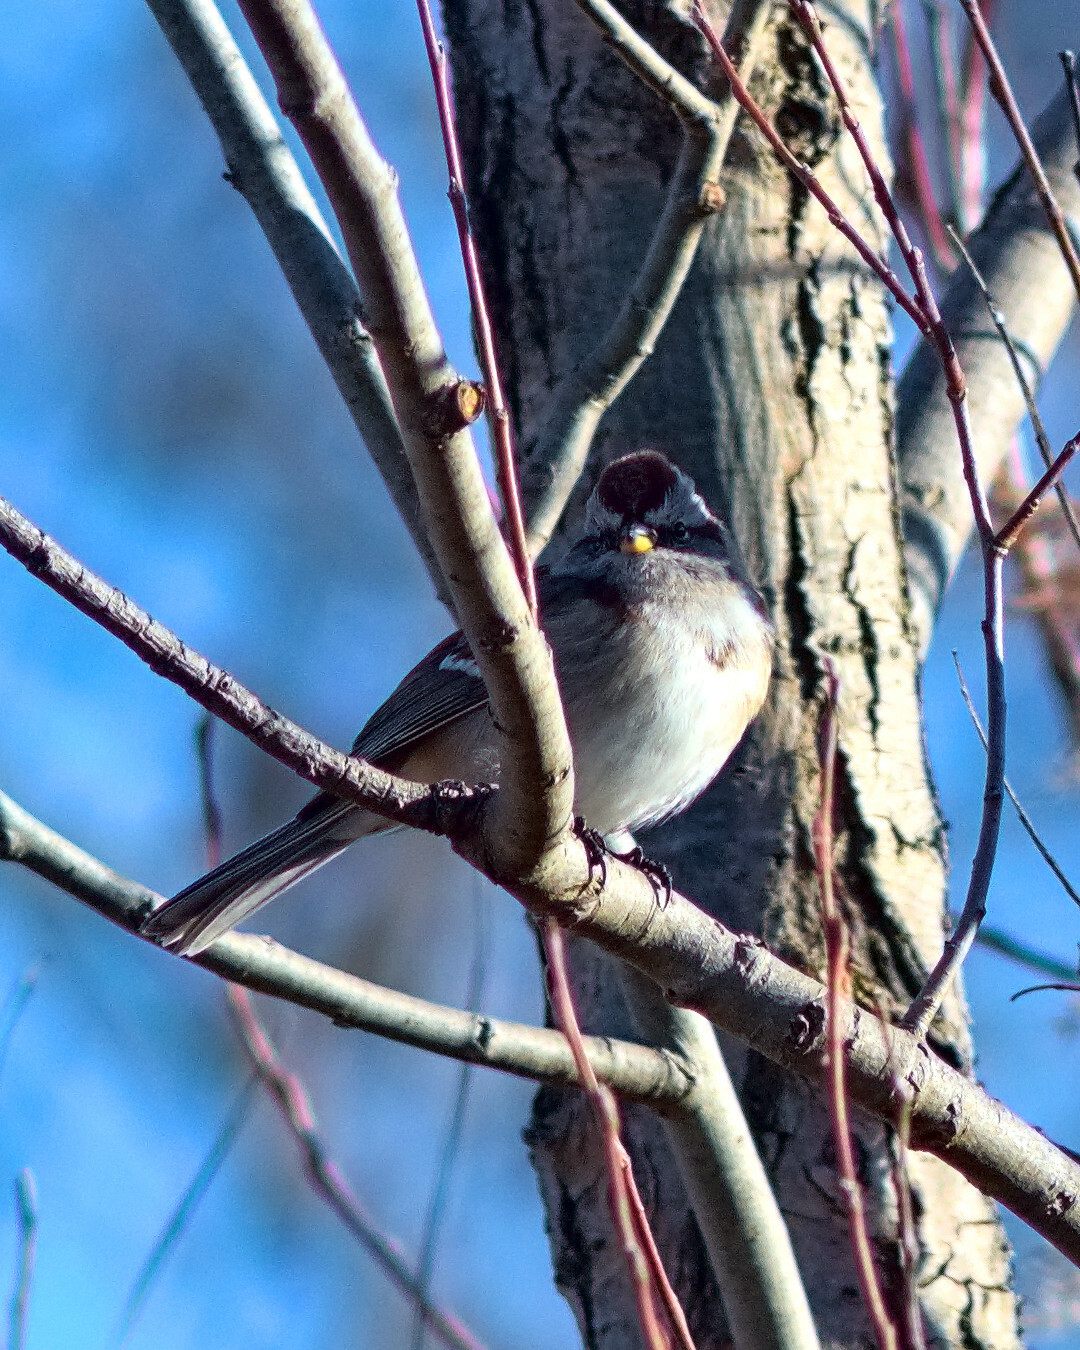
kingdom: Animalia
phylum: Chordata
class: Aves
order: Passeriformes
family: Passerellidae
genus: Spizelloides
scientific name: Spizelloides arborea
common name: American tree sparrow
